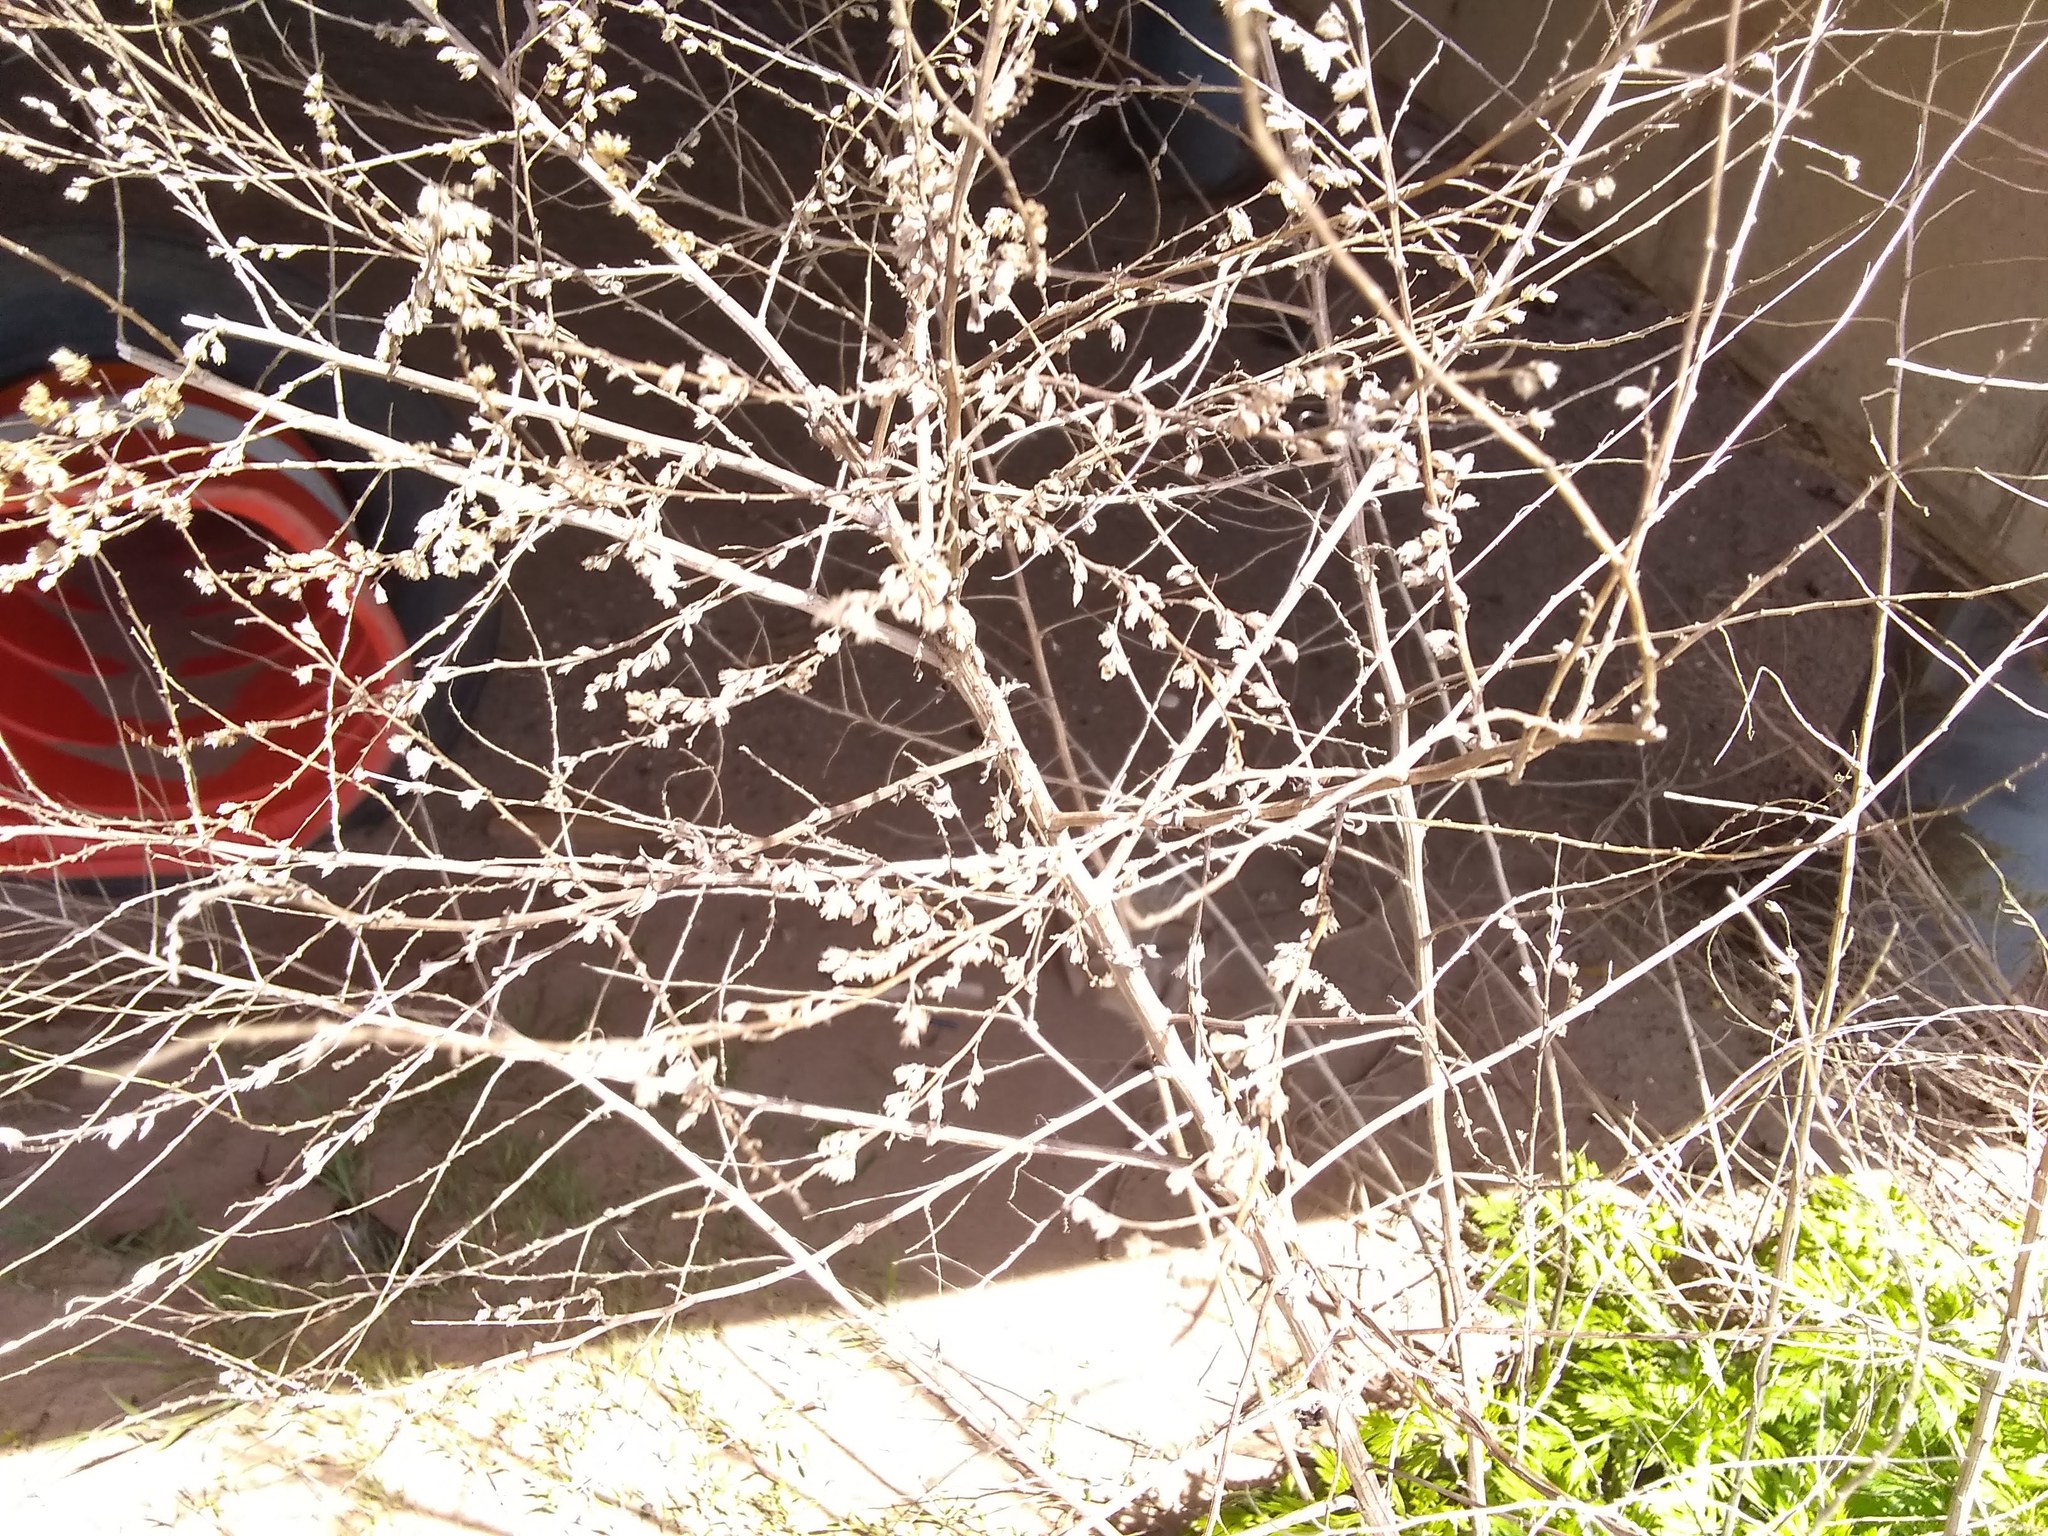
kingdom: Plantae
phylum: Tracheophyta
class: Magnoliopsida
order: Asterales
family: Asteraceae
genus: Artemisia
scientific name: Artemisia vulgaris
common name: Mugwort
